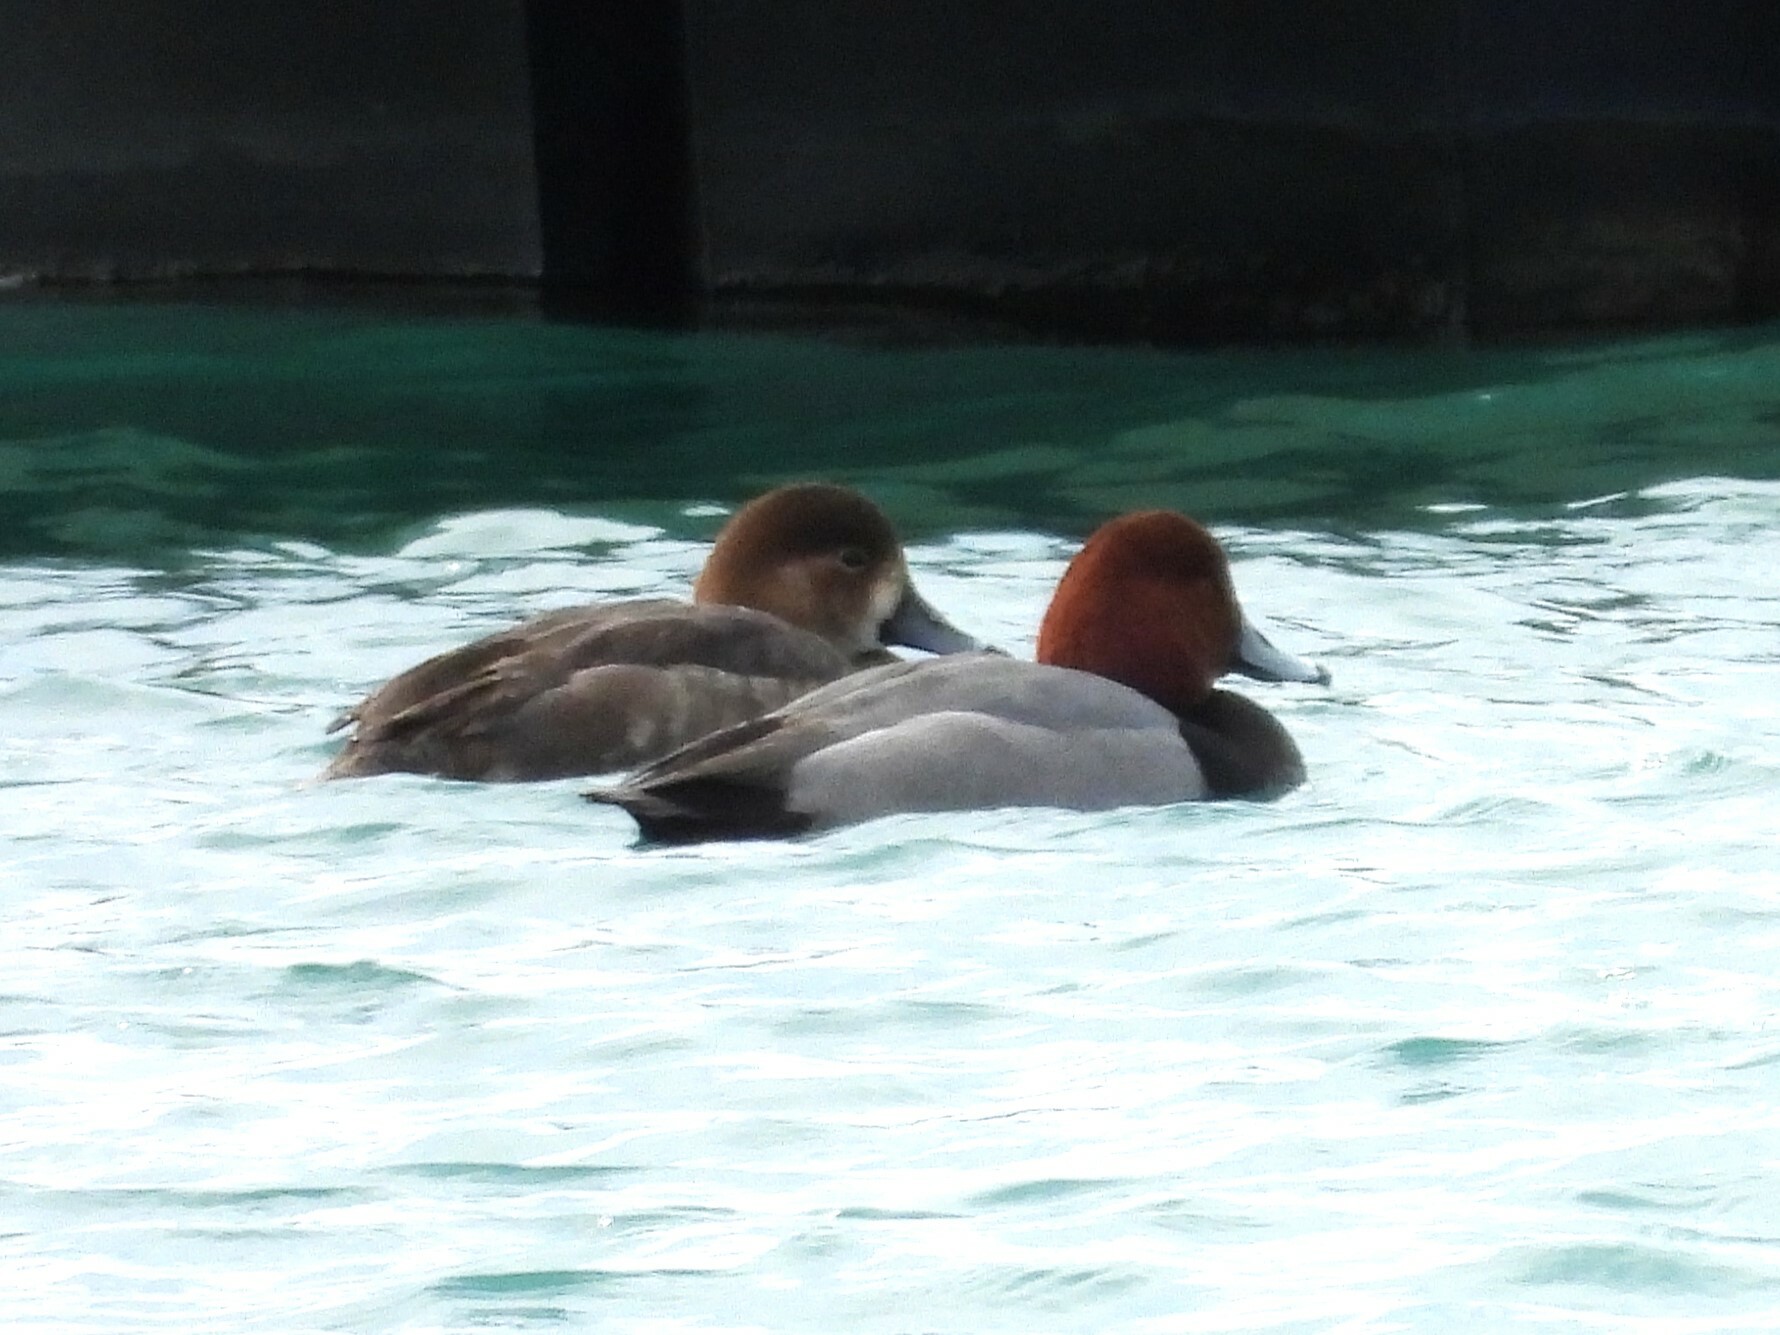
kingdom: Animalia
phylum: Chordata
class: Aves
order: Anseriformes
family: Anatidae
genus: Aythya
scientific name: Aythya americana
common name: Redhead
